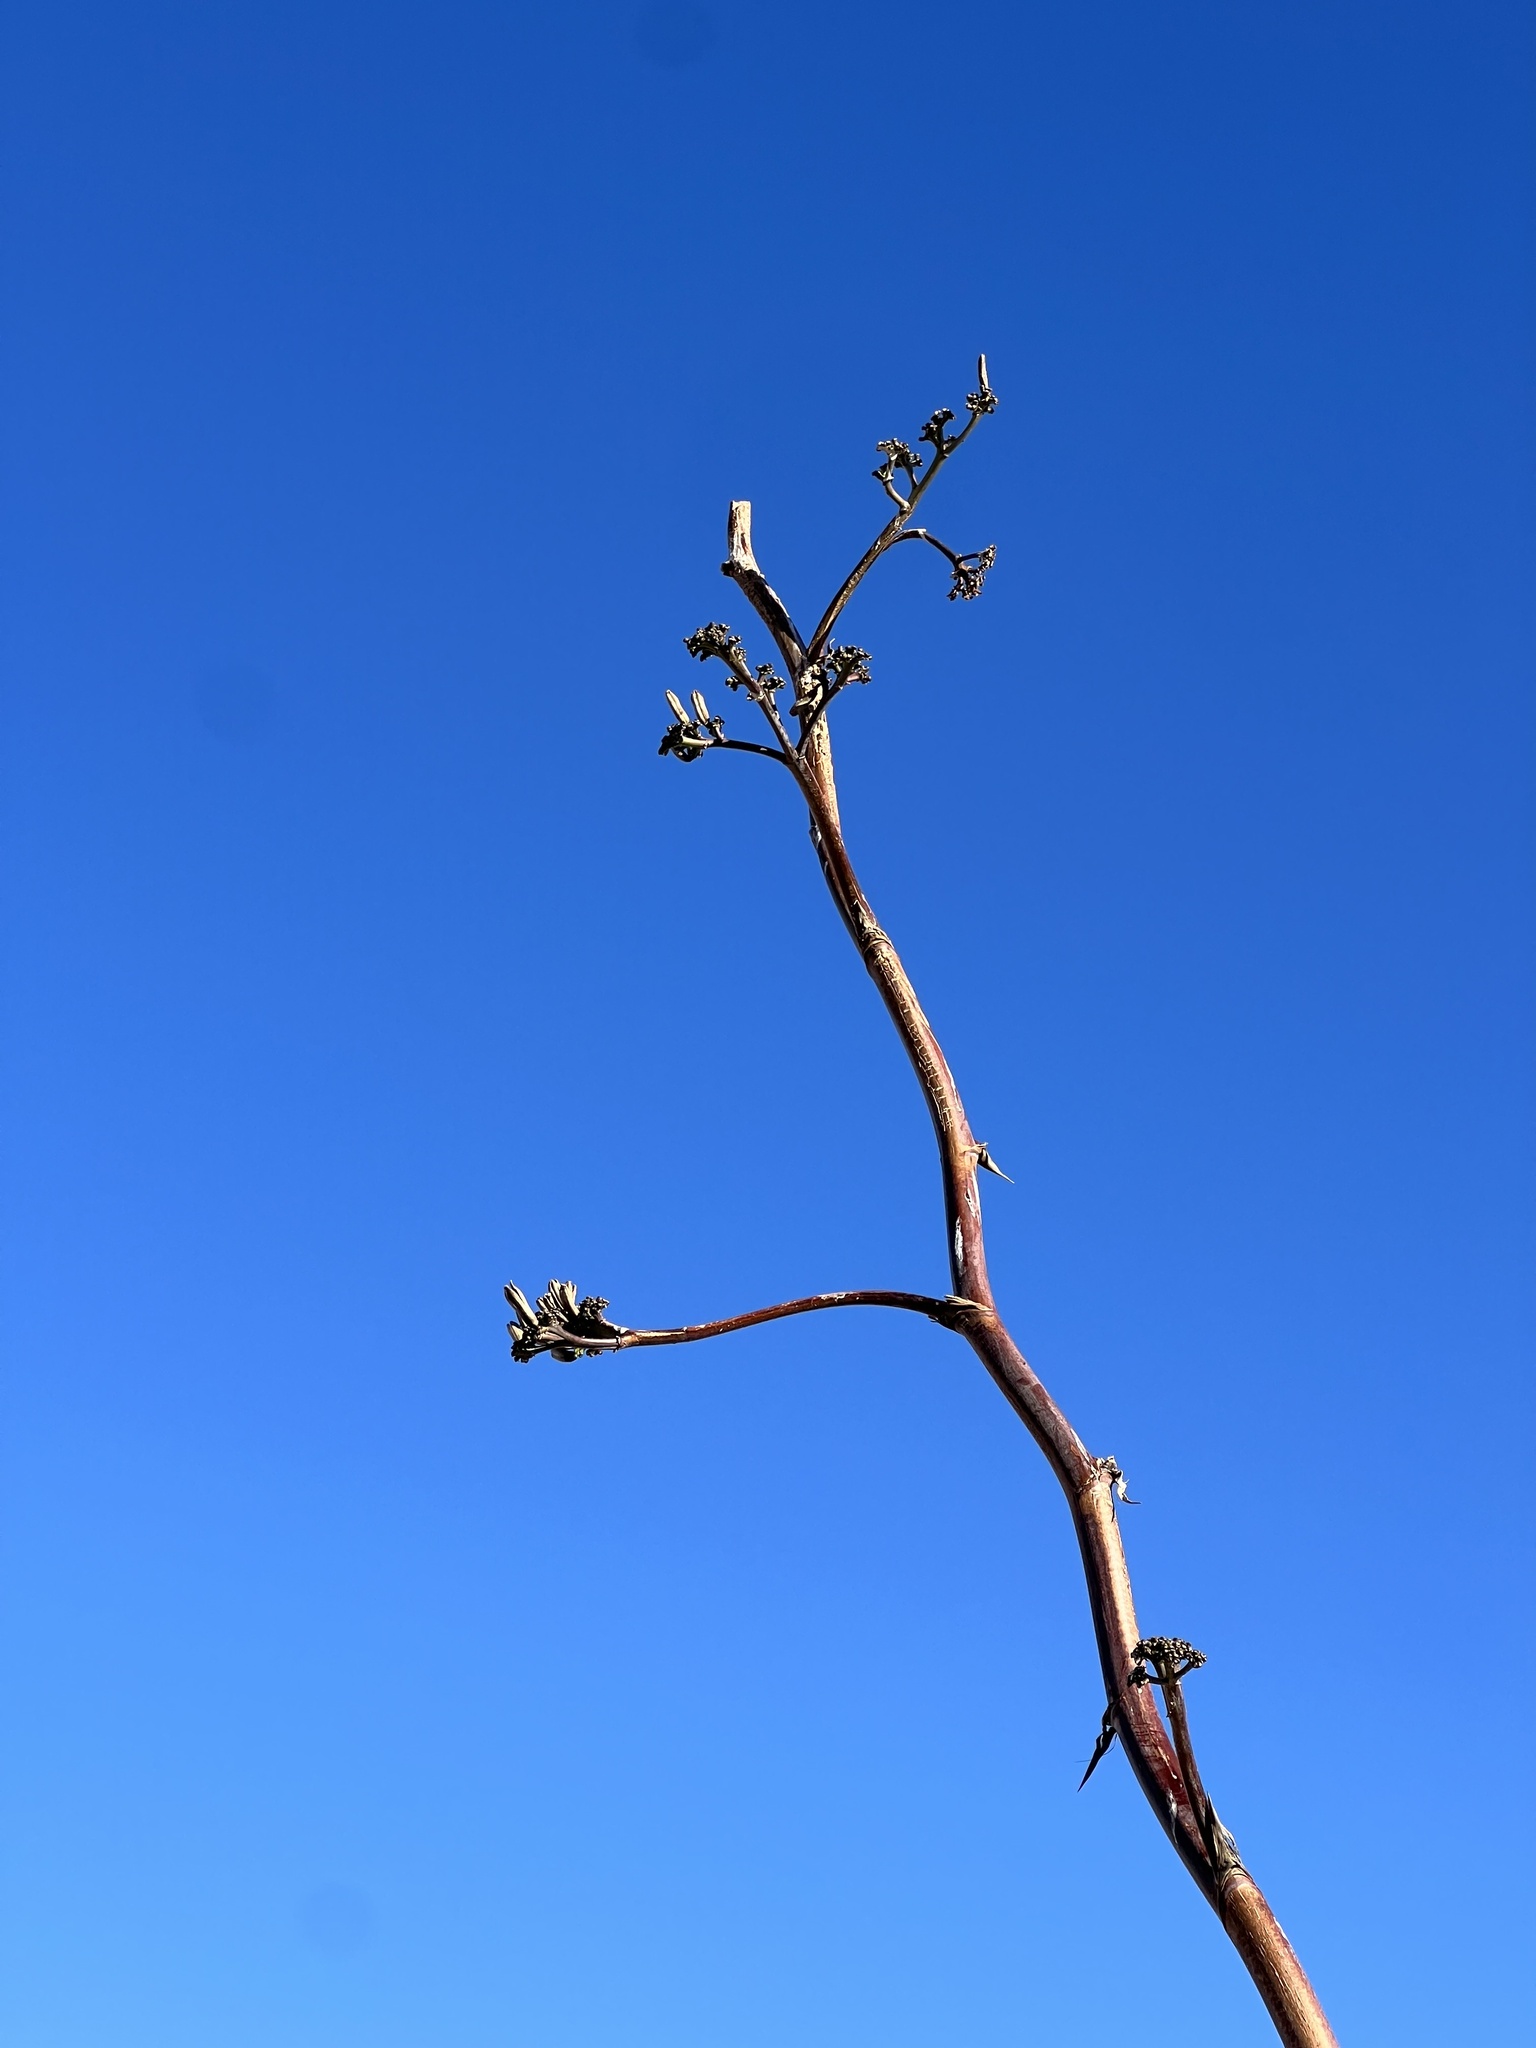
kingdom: Plantae
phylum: Tracheophyta
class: Liliopsida
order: Asparagales
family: Asparagaceae
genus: Agave
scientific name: Agave palmeri
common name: Palmer agave
